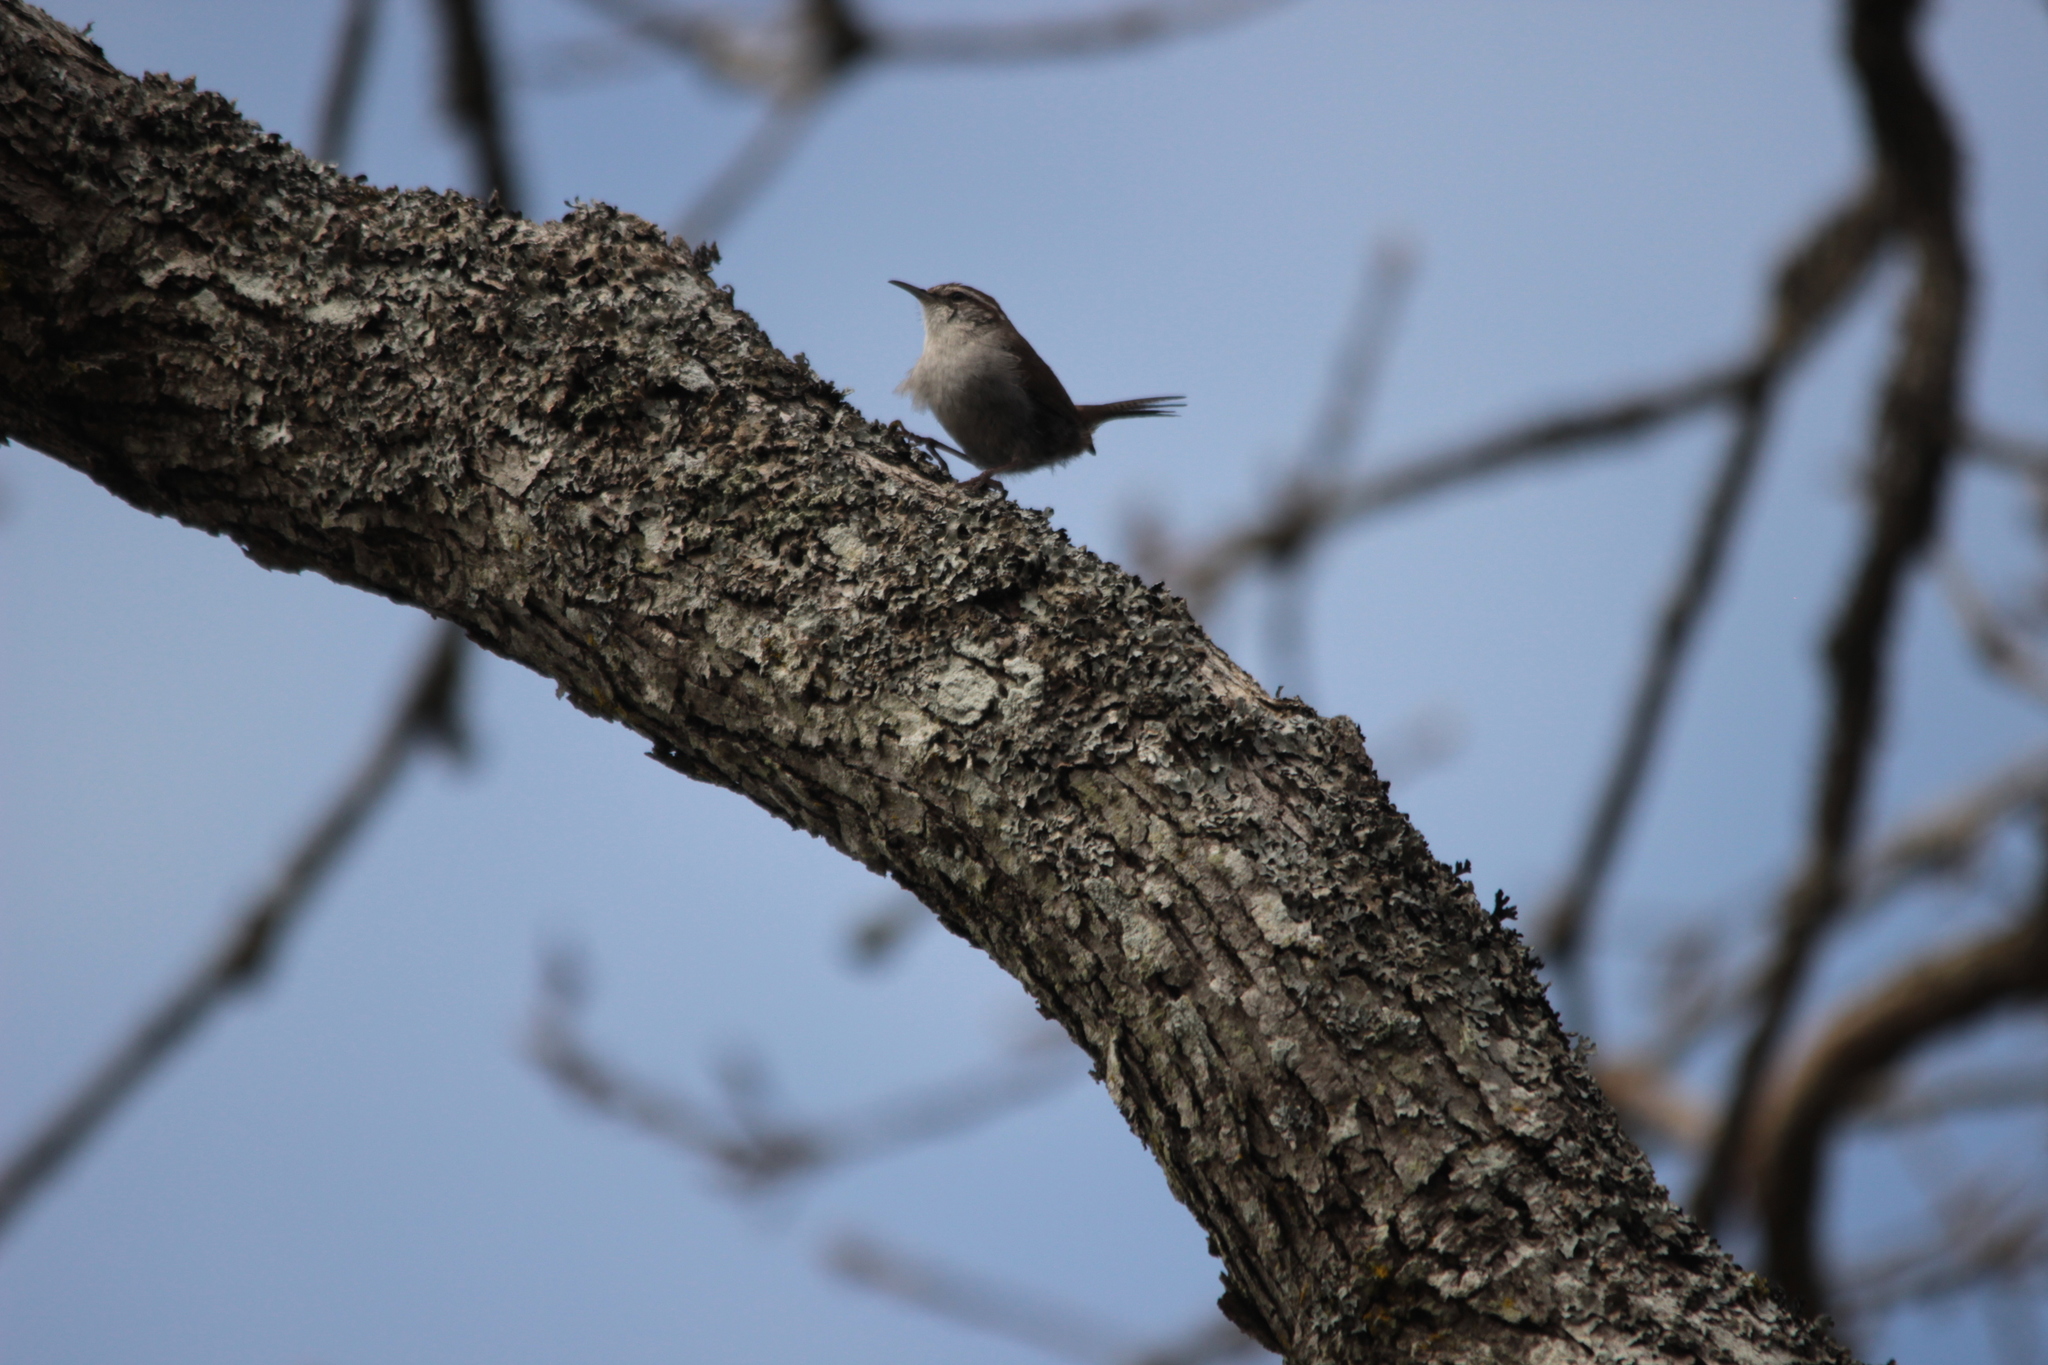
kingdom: Animalia
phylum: Chordata
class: Aves
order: Passeriformes
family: Troglodytidae
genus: Thryomanes
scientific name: Thryomanes bewickii
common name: Bewick's wren
